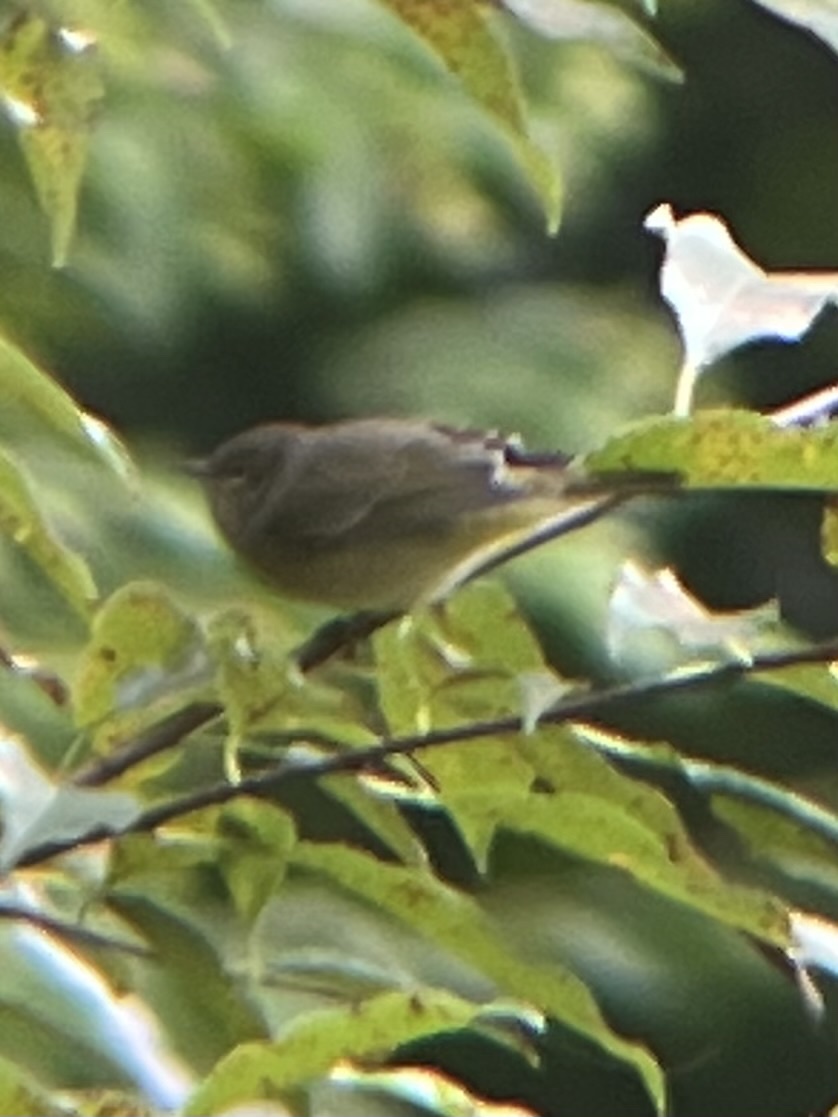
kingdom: Animalia
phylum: Chordata
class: Aves
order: Passeriformes
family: Parulidae
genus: Leiothlypis
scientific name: Leiothlypis celata
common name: Orange-crowned warbler
